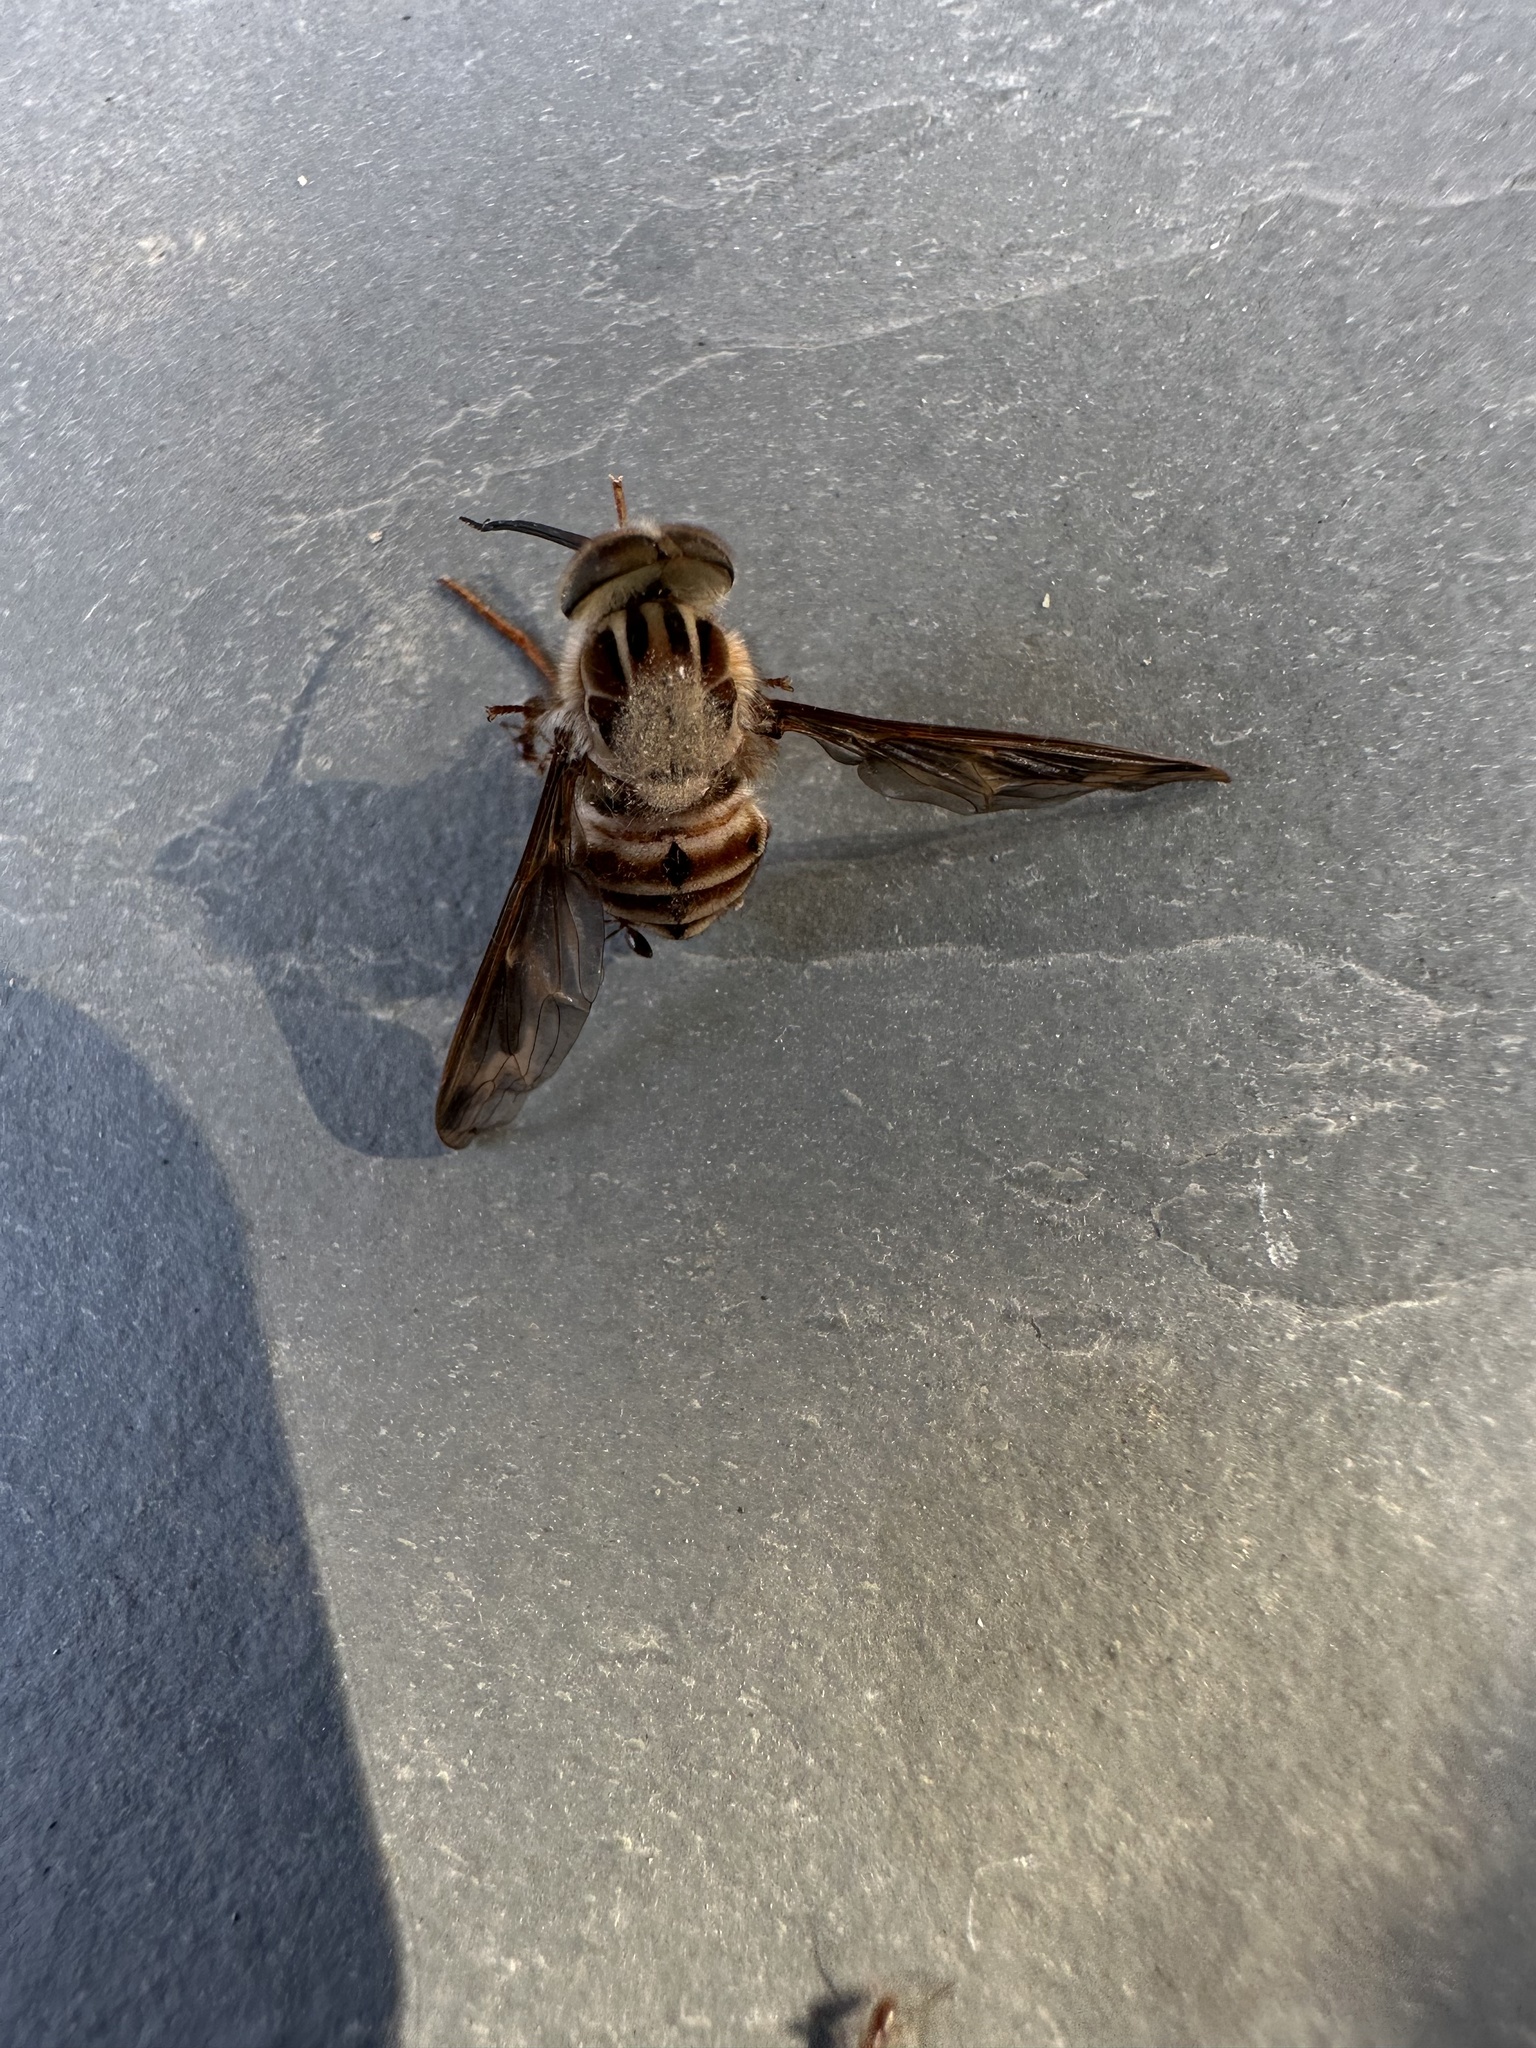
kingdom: Animalia
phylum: Arthropoda
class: Insecta
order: Diptera
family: Nemestrinidae
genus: Trichophthalma
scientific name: Trichophthalma nubipennis
